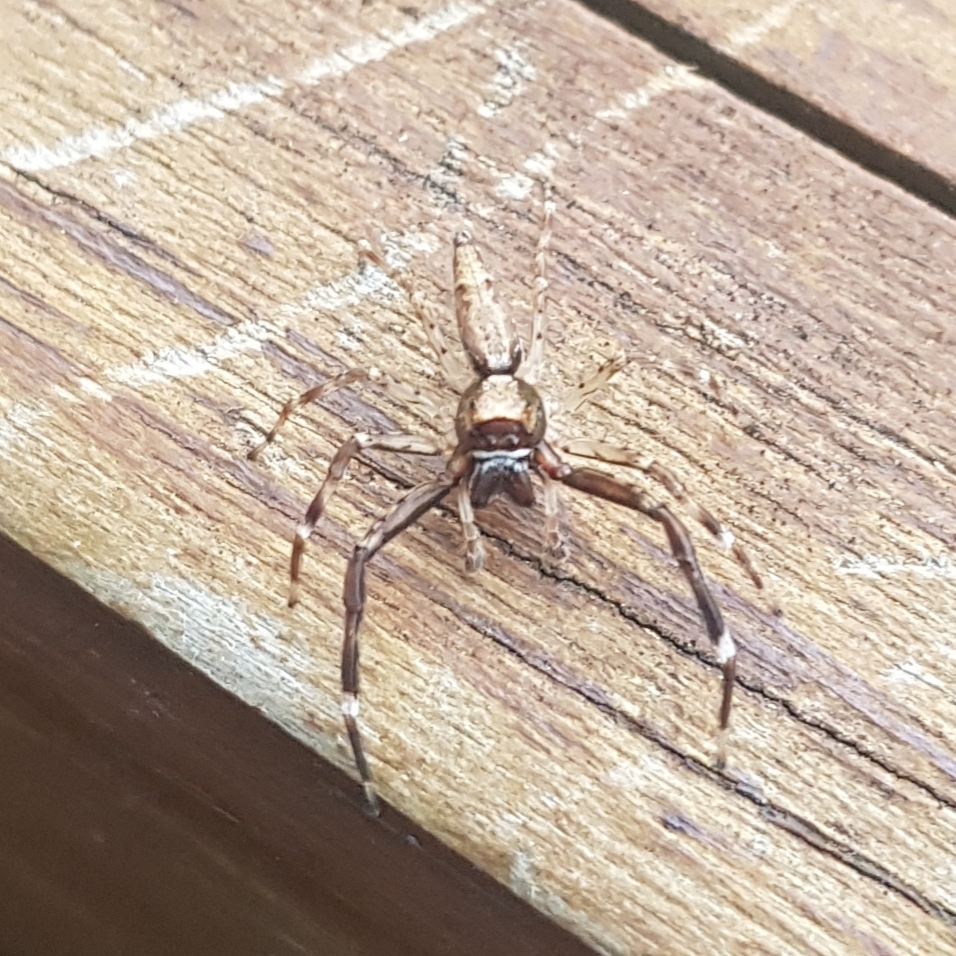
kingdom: Animalia
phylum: Arthropoda
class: Arachnida
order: Araneae
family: Salticidae
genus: Helpis
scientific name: Helpis minitabunda
